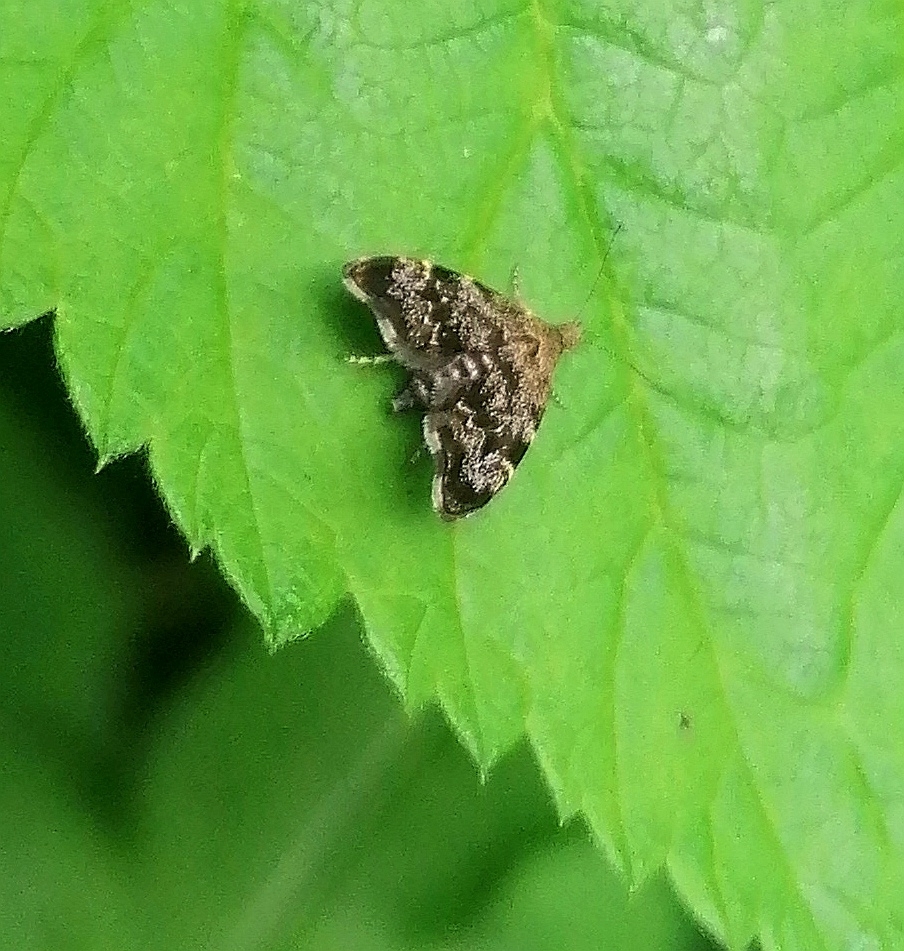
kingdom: Animalia
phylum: Arthropoda
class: Insecta
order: Lepidoptera
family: Choreutidae
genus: Anthophila
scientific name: Anthophila fabriciana
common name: Nettle-tap
